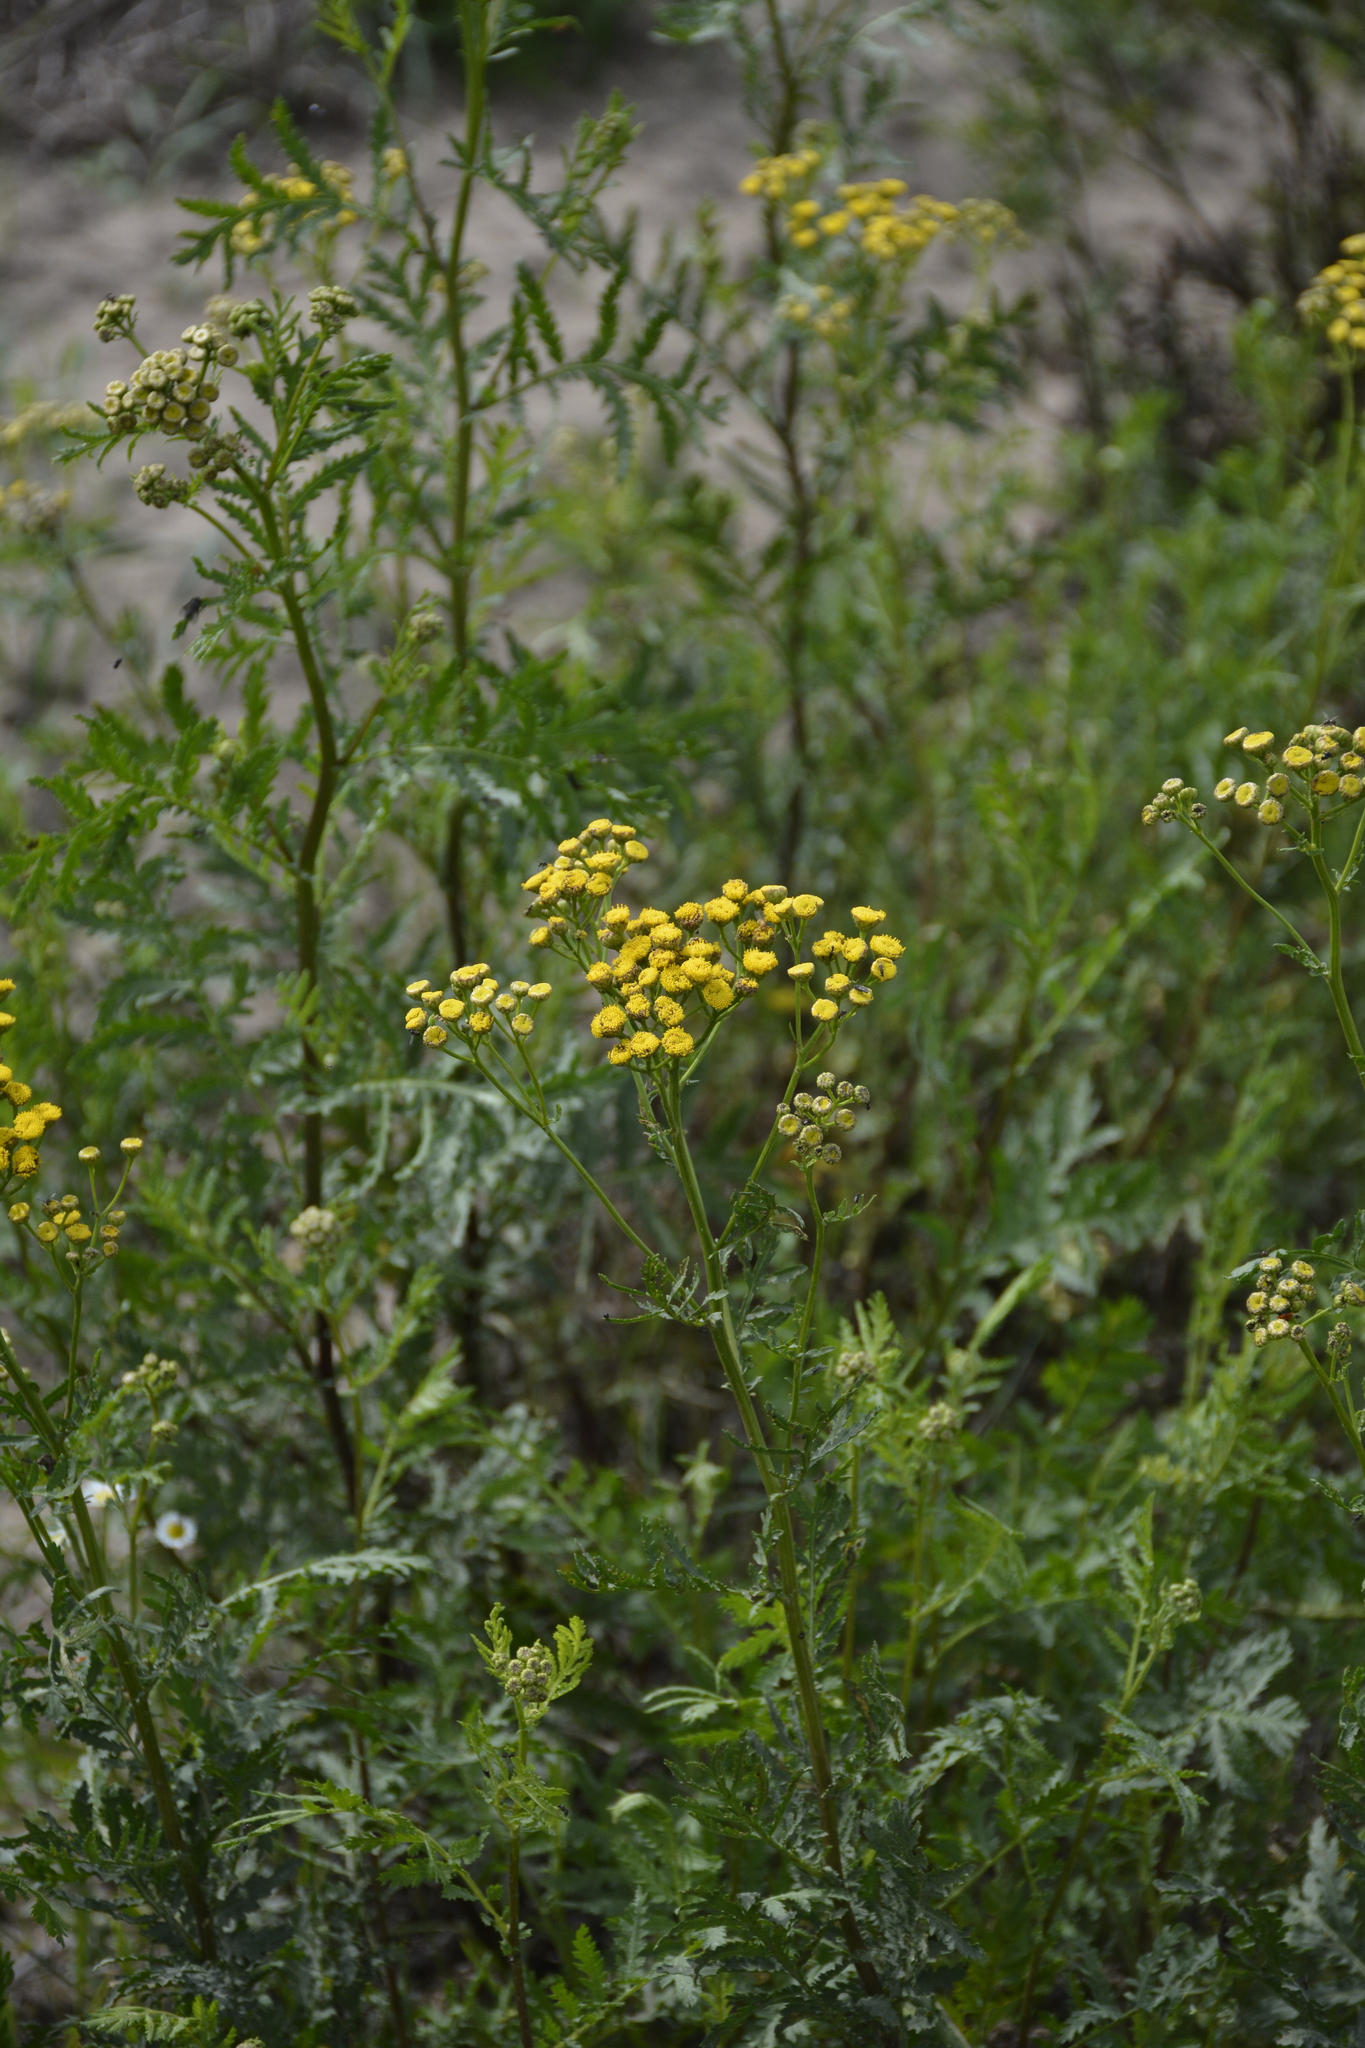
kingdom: Plantae
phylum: Tracheophyta
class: Magnoliopsida
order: Asterales
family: Asteraceae
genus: Tanacetum
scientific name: Tanacetum vulgare
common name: Common tansy
